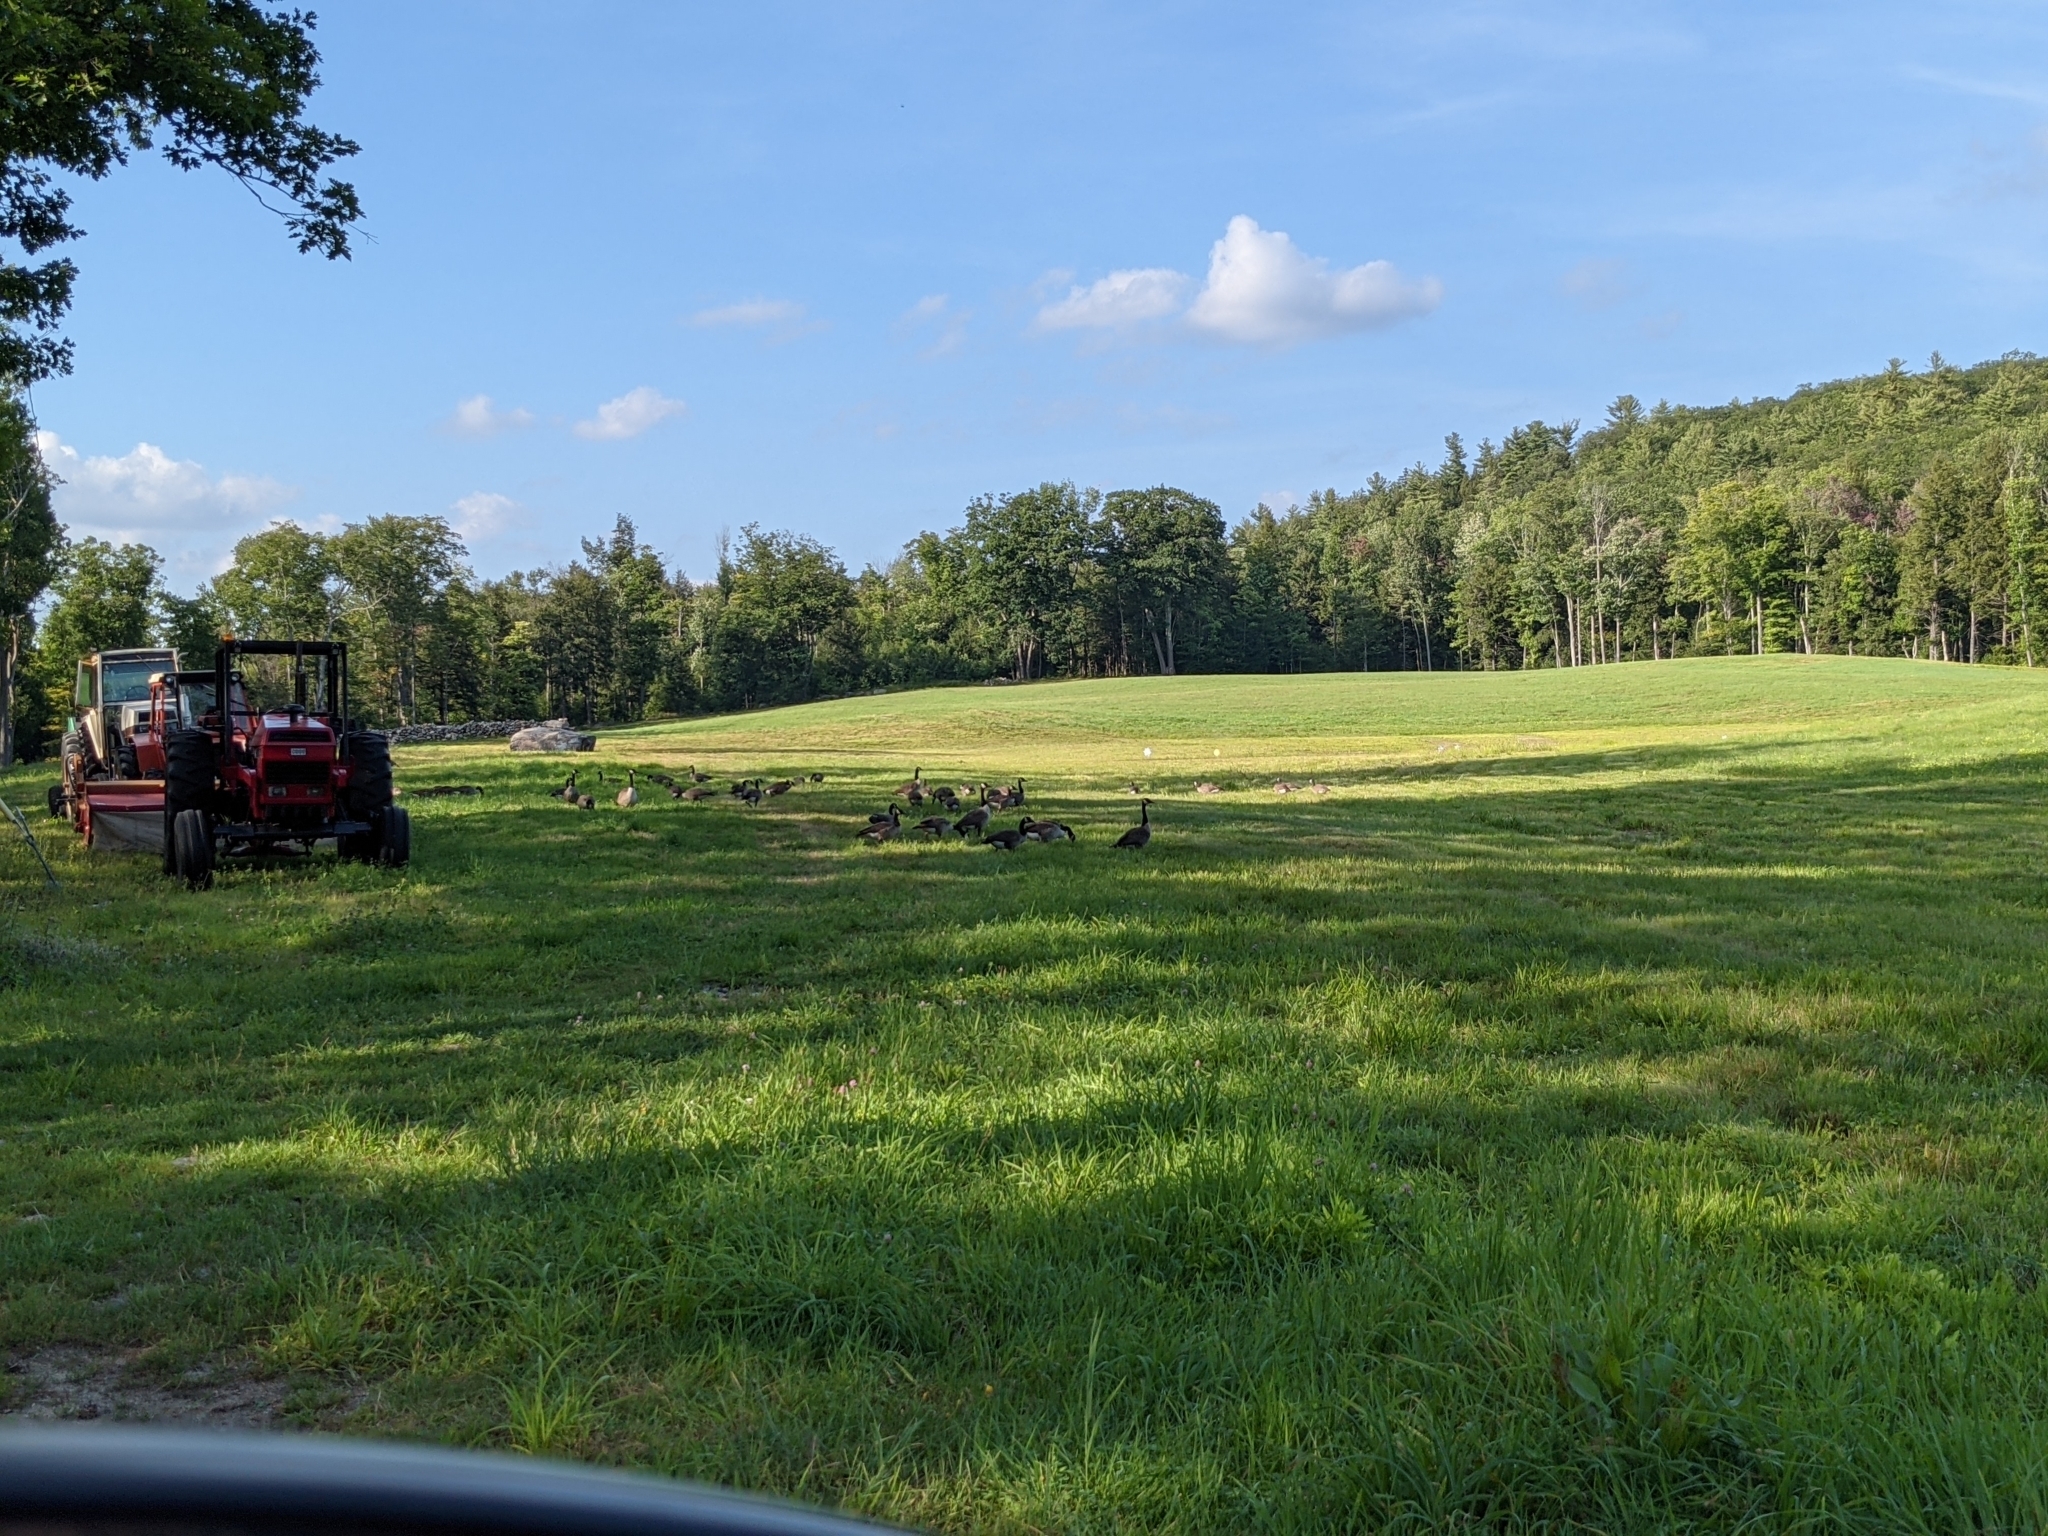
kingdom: Animalia
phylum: Chordata
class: Aves
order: Anseriformes
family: Anatidae
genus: Branta
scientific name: Branta canadensis
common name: Canada goose
